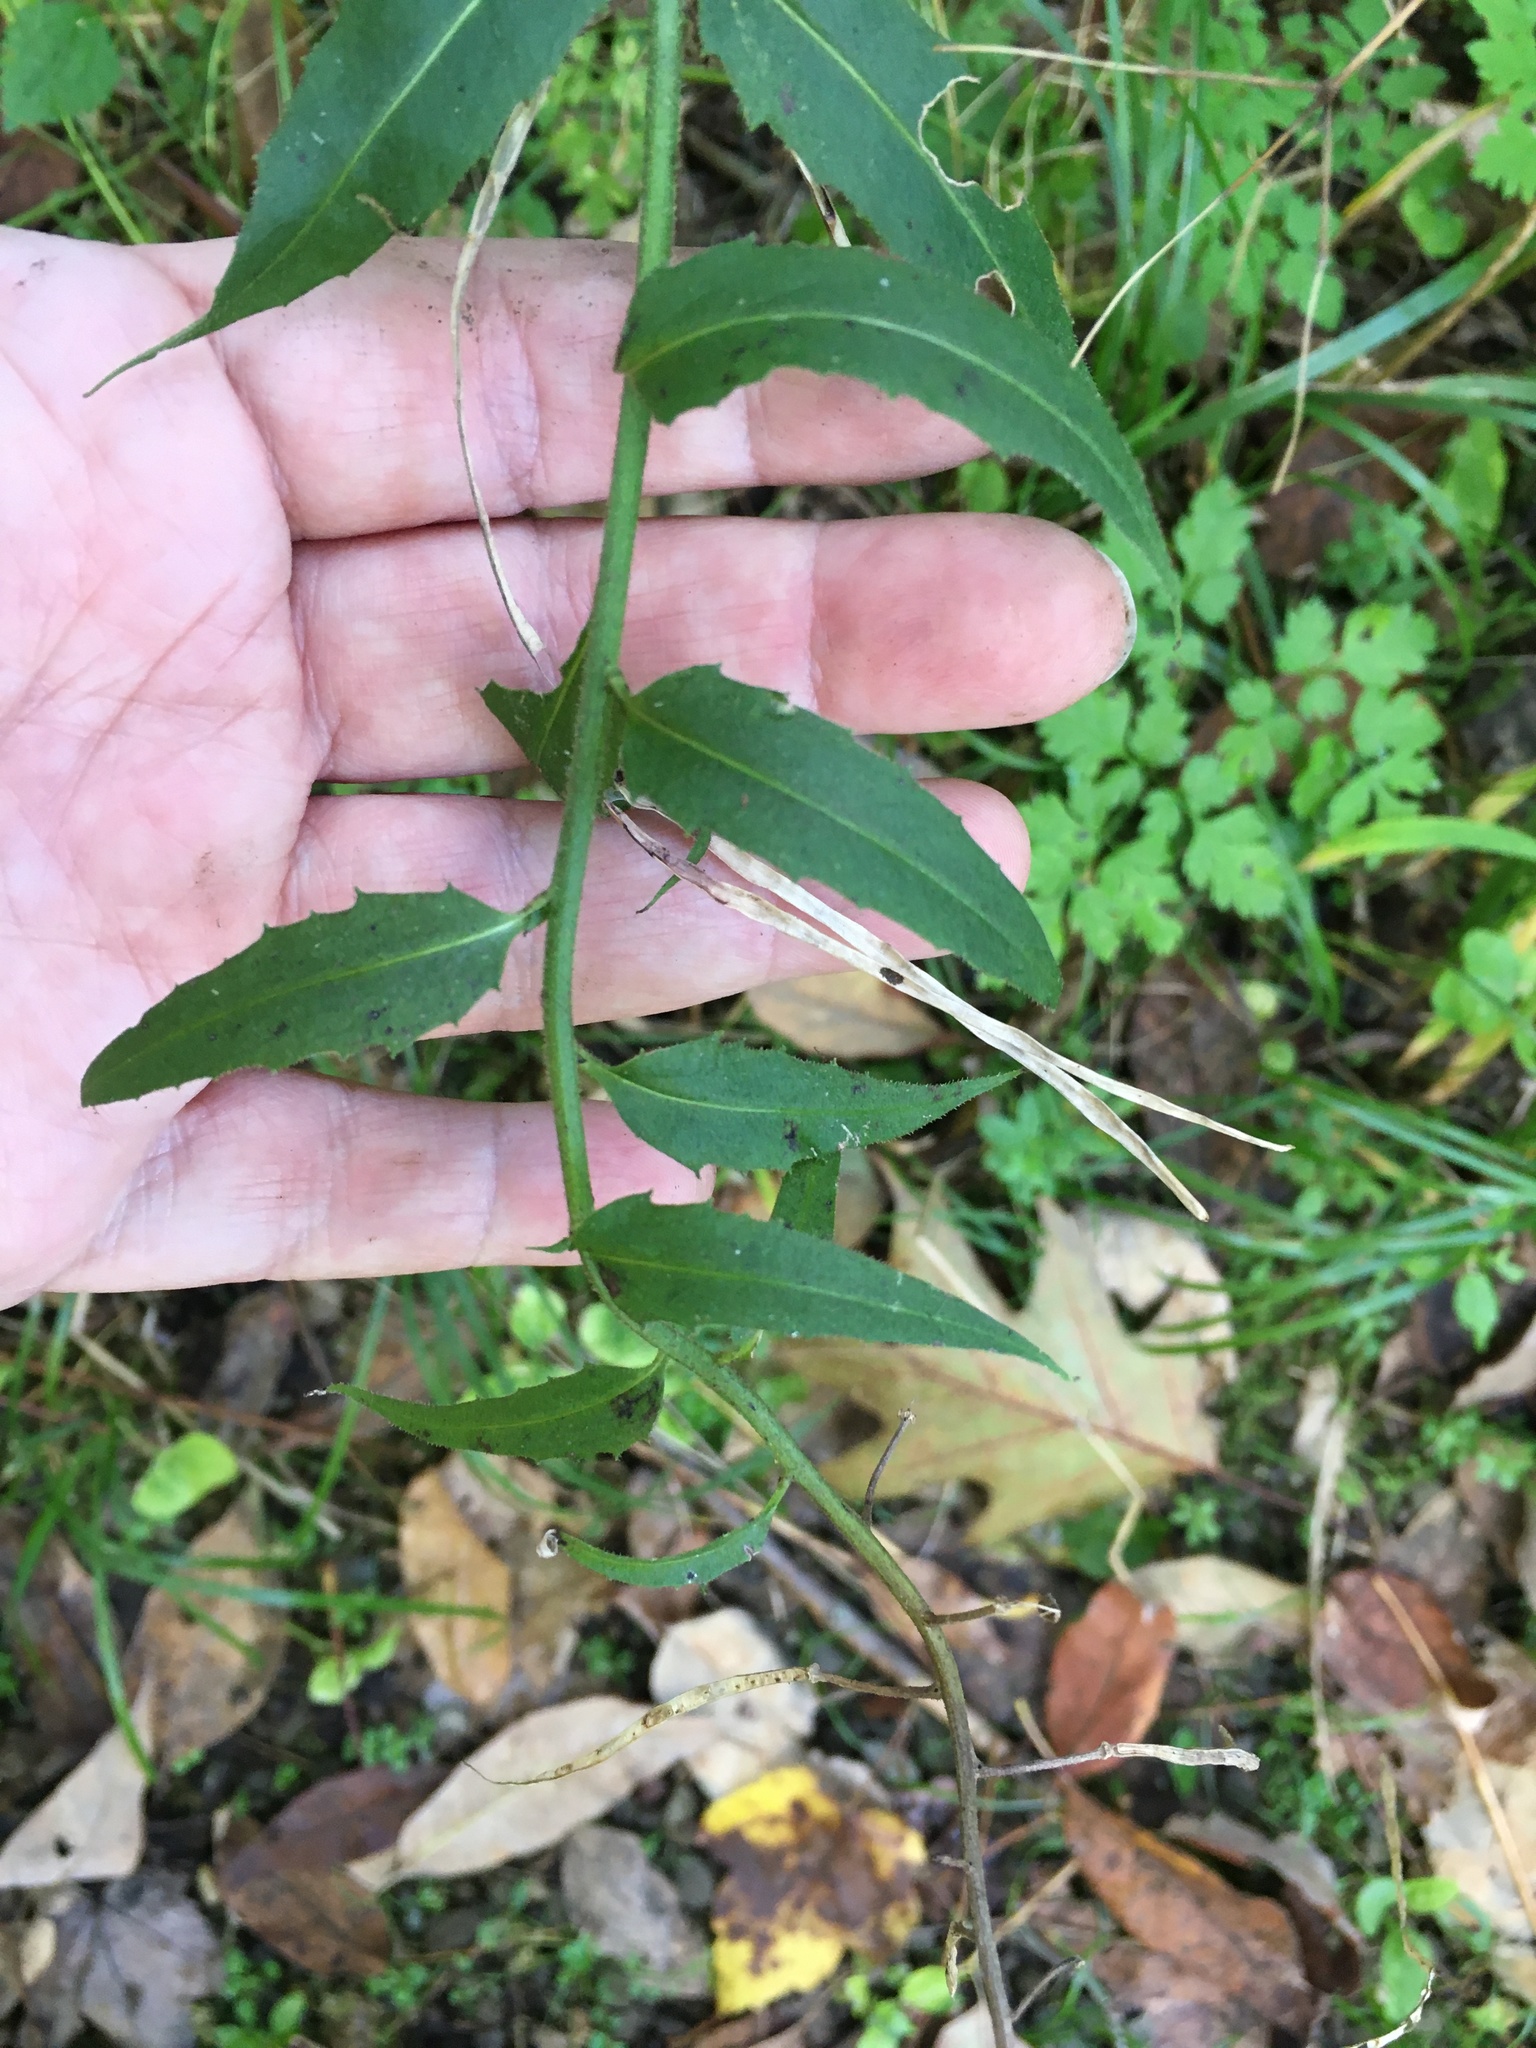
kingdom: Plantae
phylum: Tracheophyta
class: Magnoliopsida
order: Brassicales
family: Brassicaceae
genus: Hesperis
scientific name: Hesperis matronalis
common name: Dame's-violet
